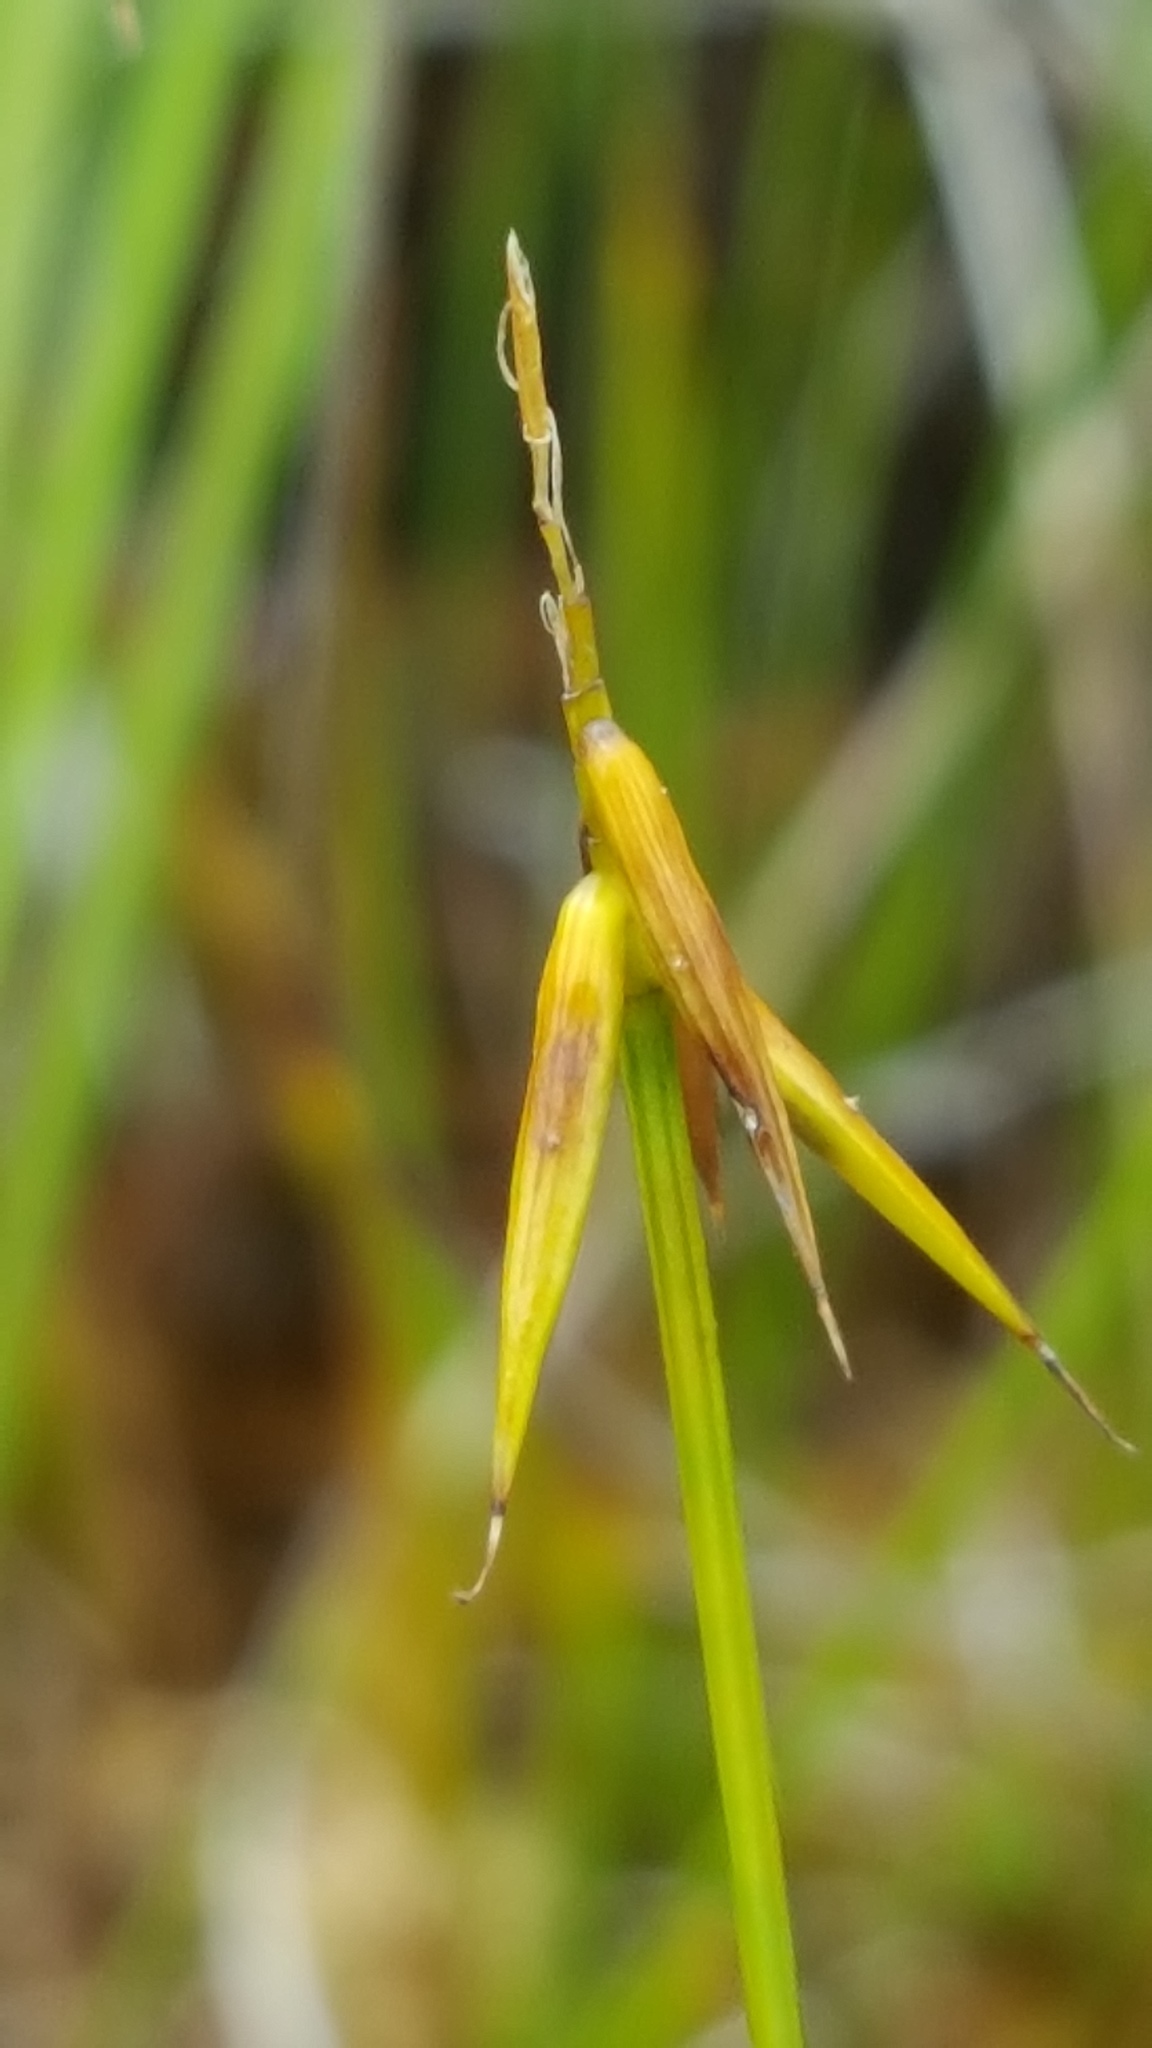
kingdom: Plantae
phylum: Tracheophyta
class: Liliopsida
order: Poales
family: Cyperaceae
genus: Carex
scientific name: Carex pauciflora
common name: Few-flowered sedge
